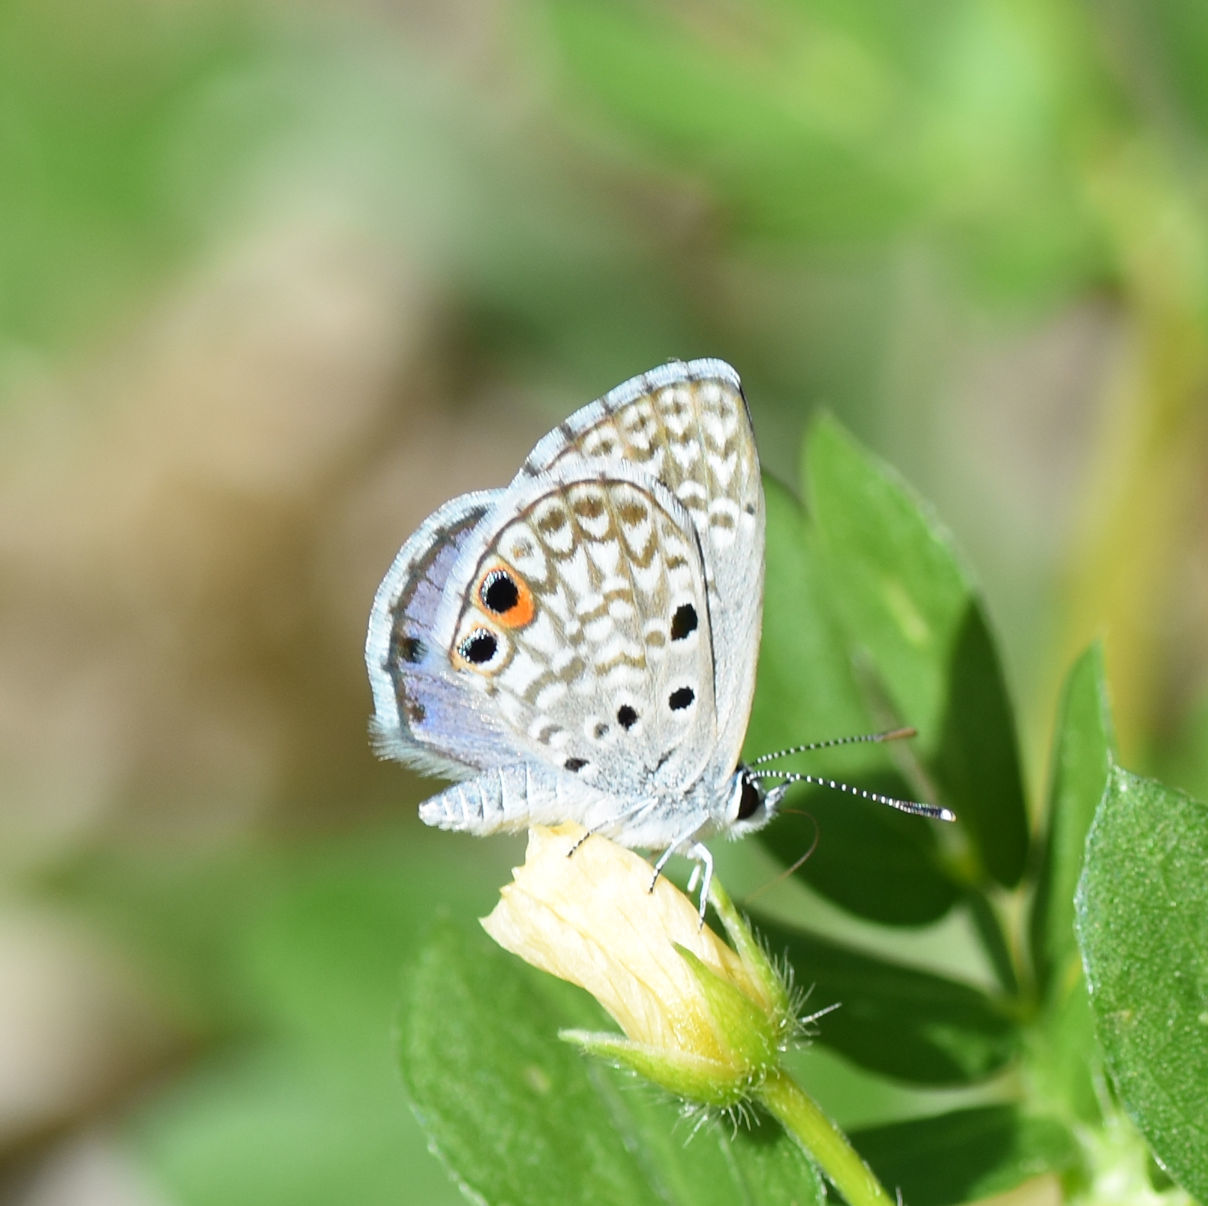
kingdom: Animalia
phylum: Arthropoda
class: Insecta
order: Lepidoptera
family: Lycaenidae
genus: Cyclargus
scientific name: Cyclargus thomasi
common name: Miami blue
